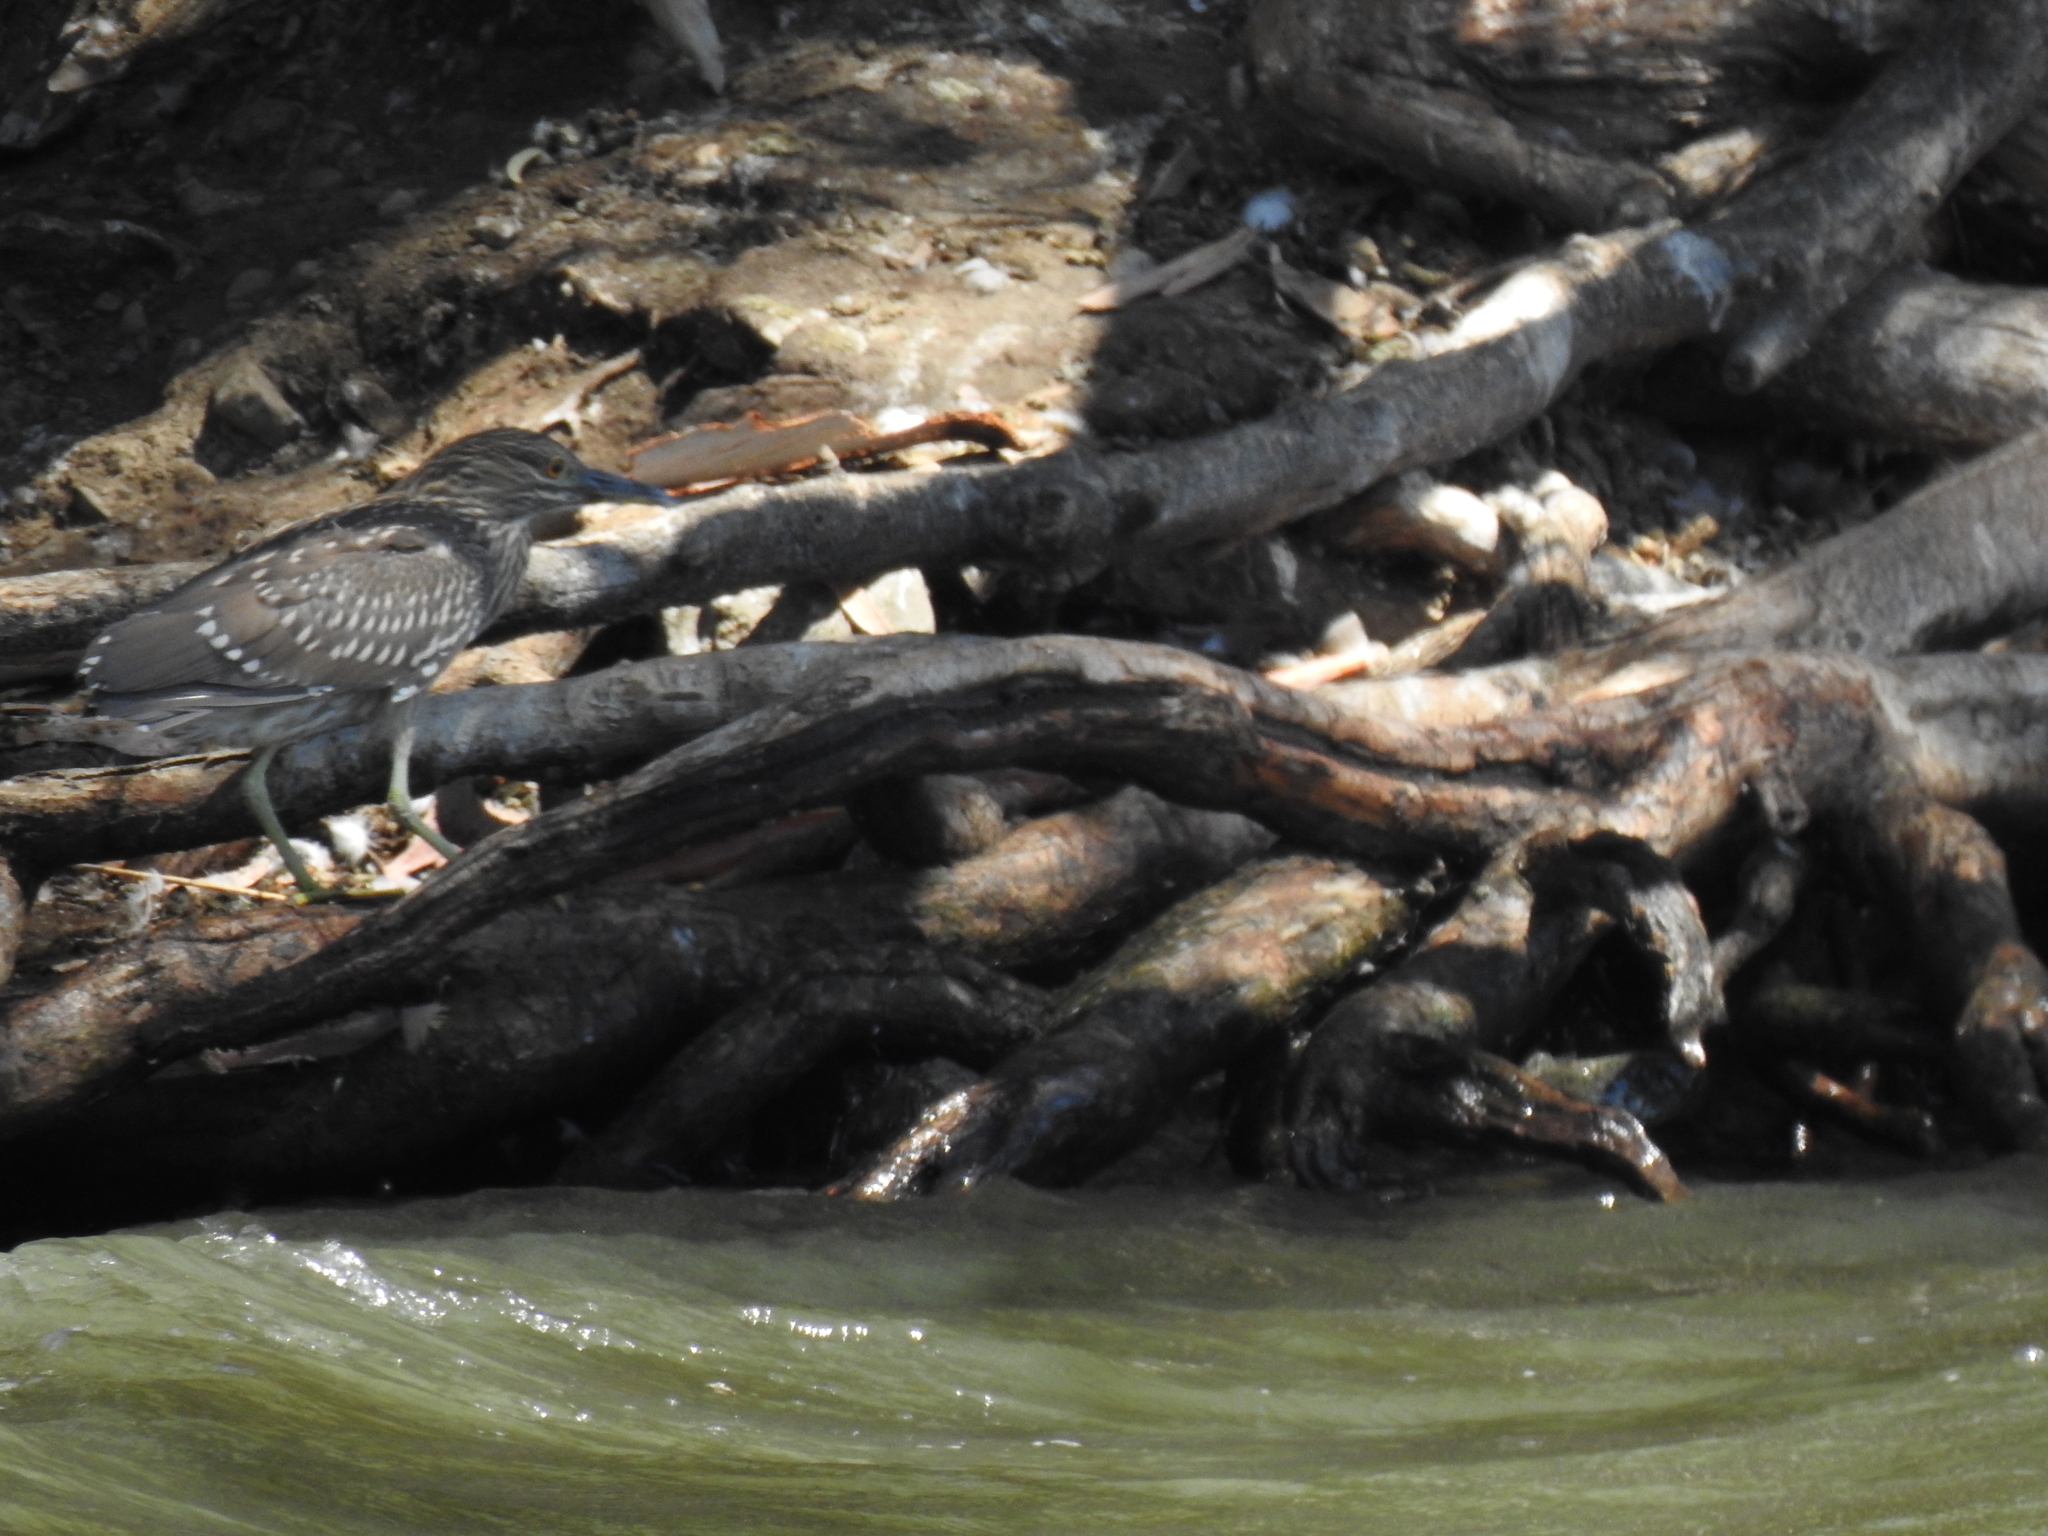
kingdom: Animalia
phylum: Chordata
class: Aves
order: Pelecaniformes
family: Ardeidae
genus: Nycticorax
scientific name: Nycticorax nycticorax
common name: Black-crowned night heron
